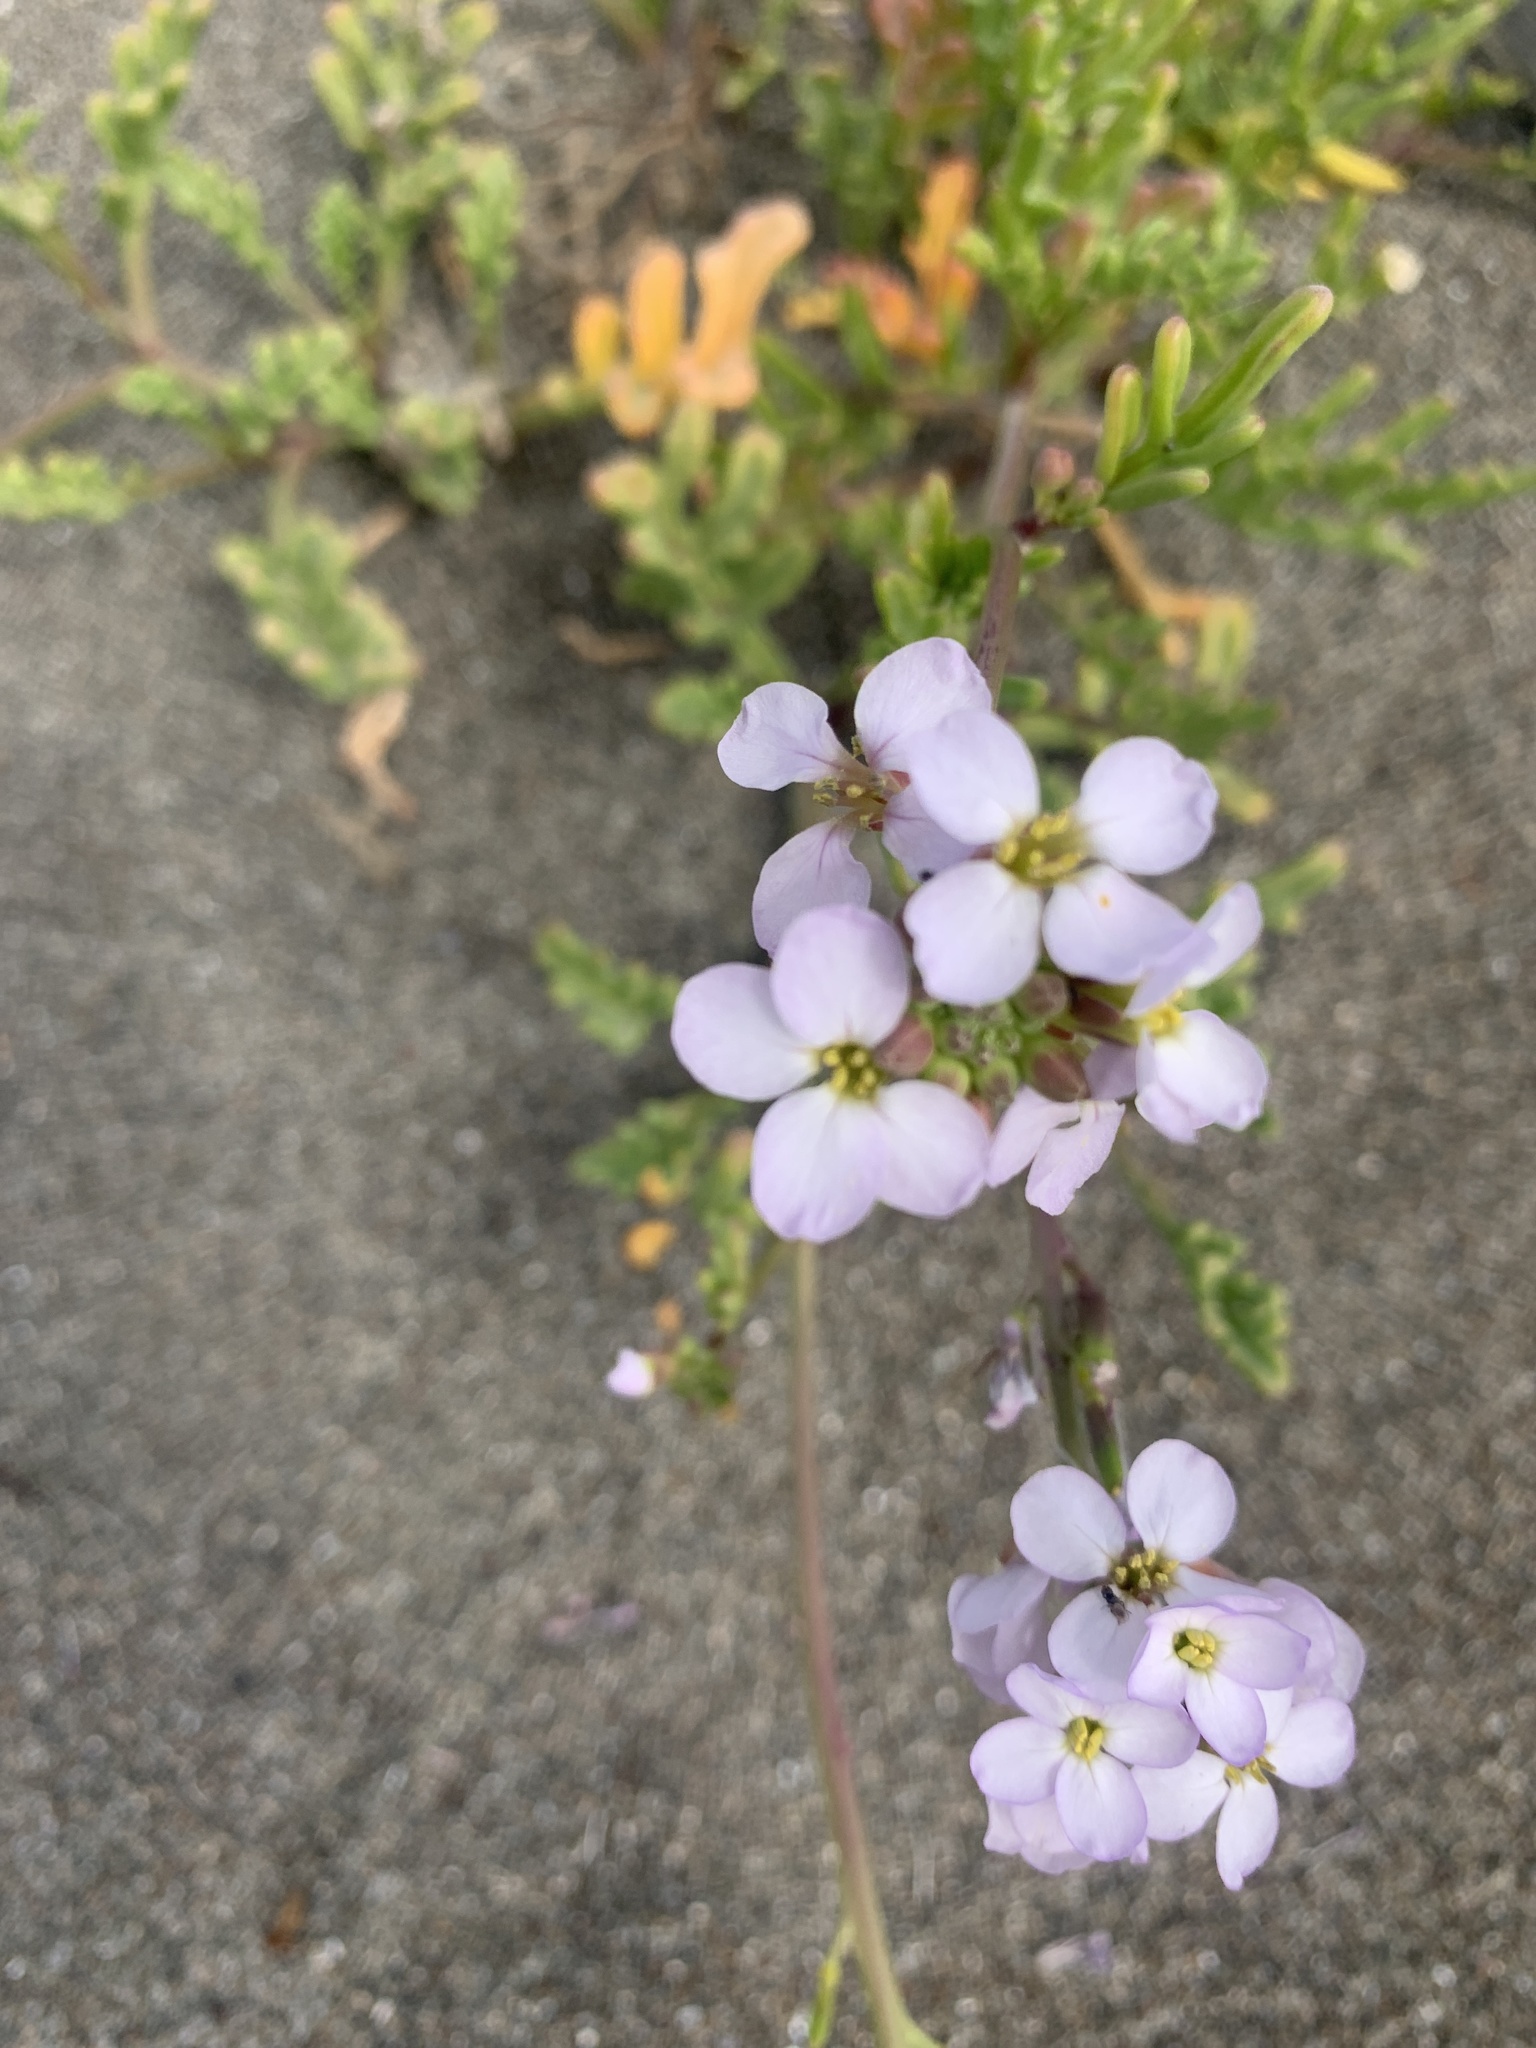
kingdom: Plantae
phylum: Tracheophyta
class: Magnoliopsida
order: Brassicales
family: Brassicaceae
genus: Cakile
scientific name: Cakile maritima
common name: Sea rocket
